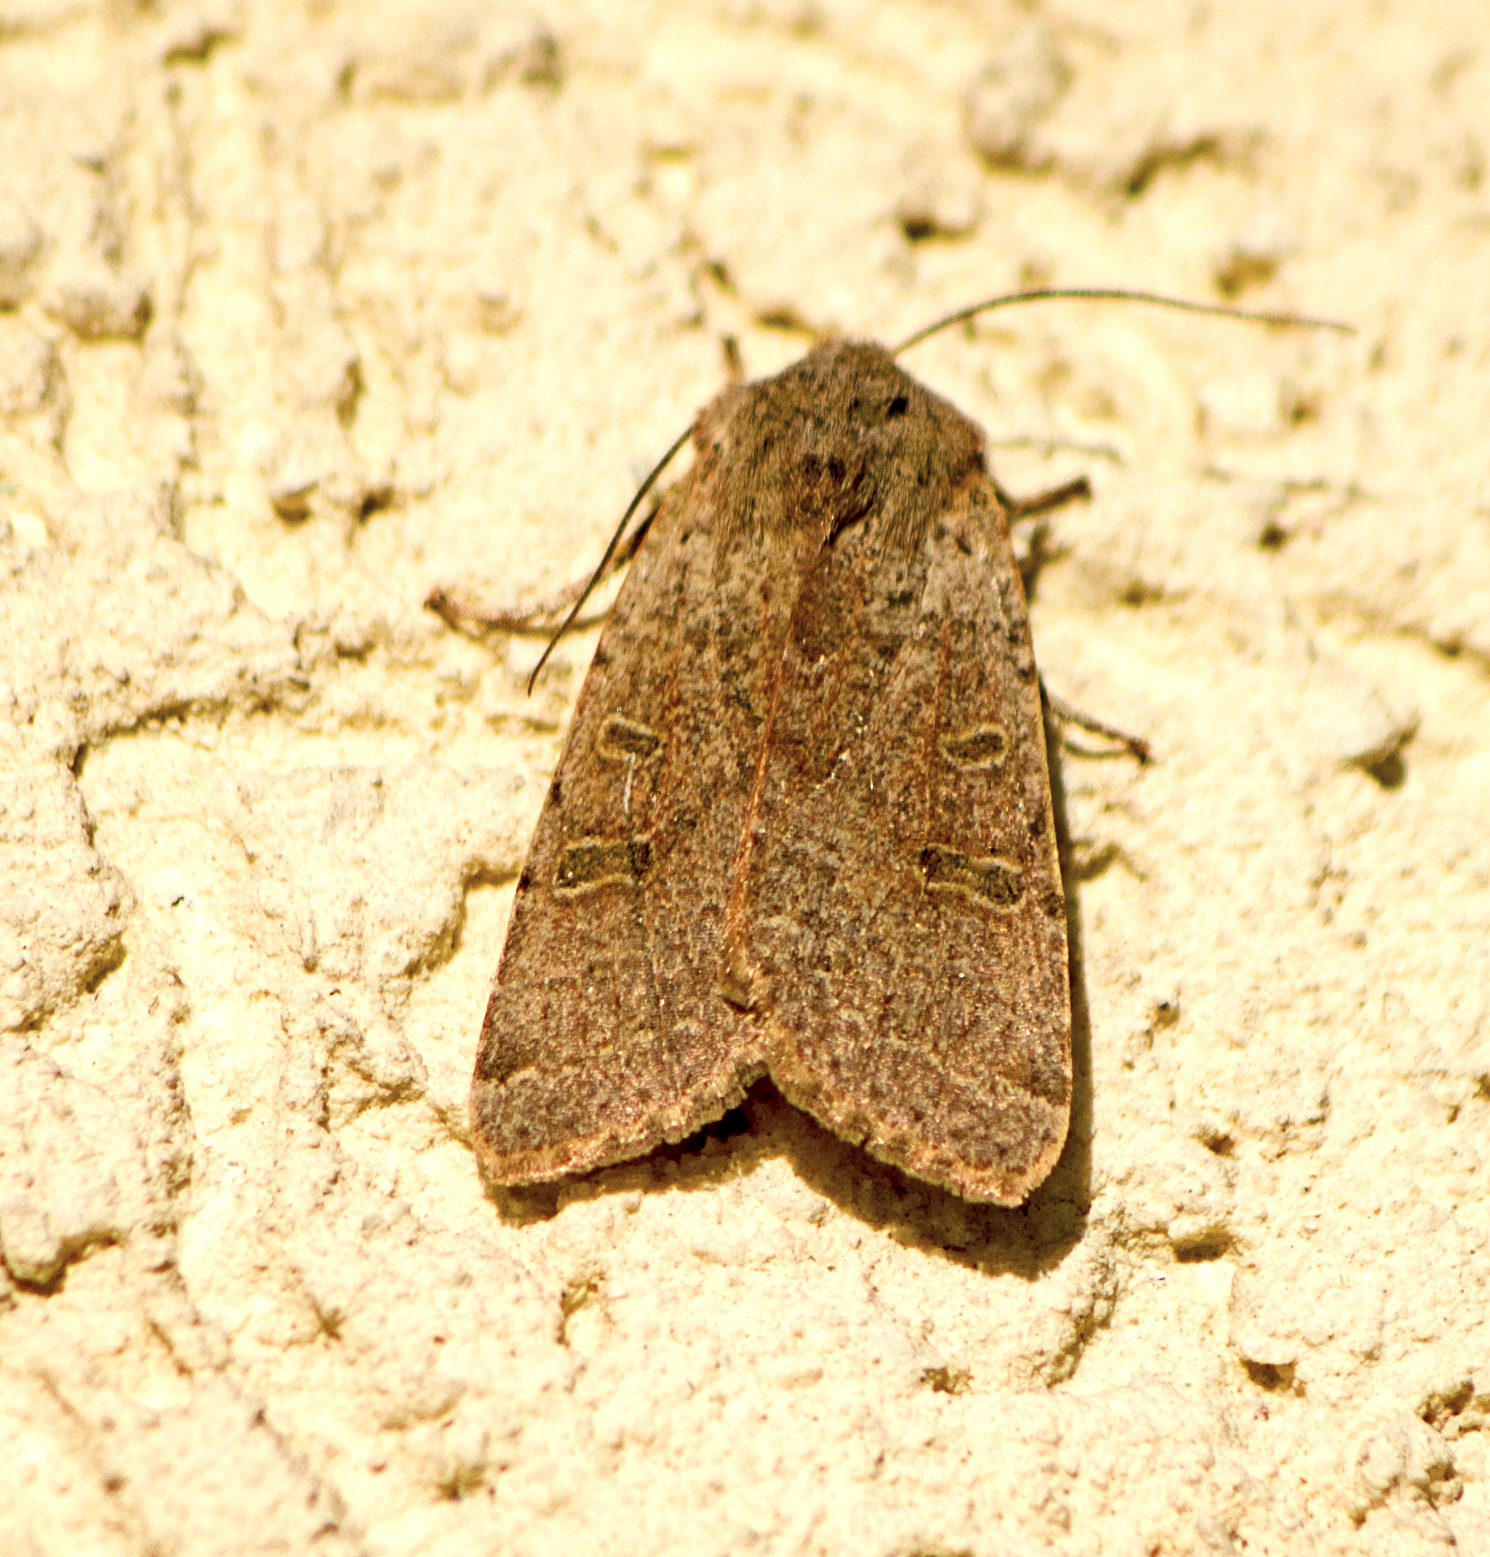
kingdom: Animalia
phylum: Arthropoda
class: Insecta
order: Lepidoptera
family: Noctuidae
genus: Agrochola
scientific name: Agrochola lychnidis
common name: Beaded chestnut
